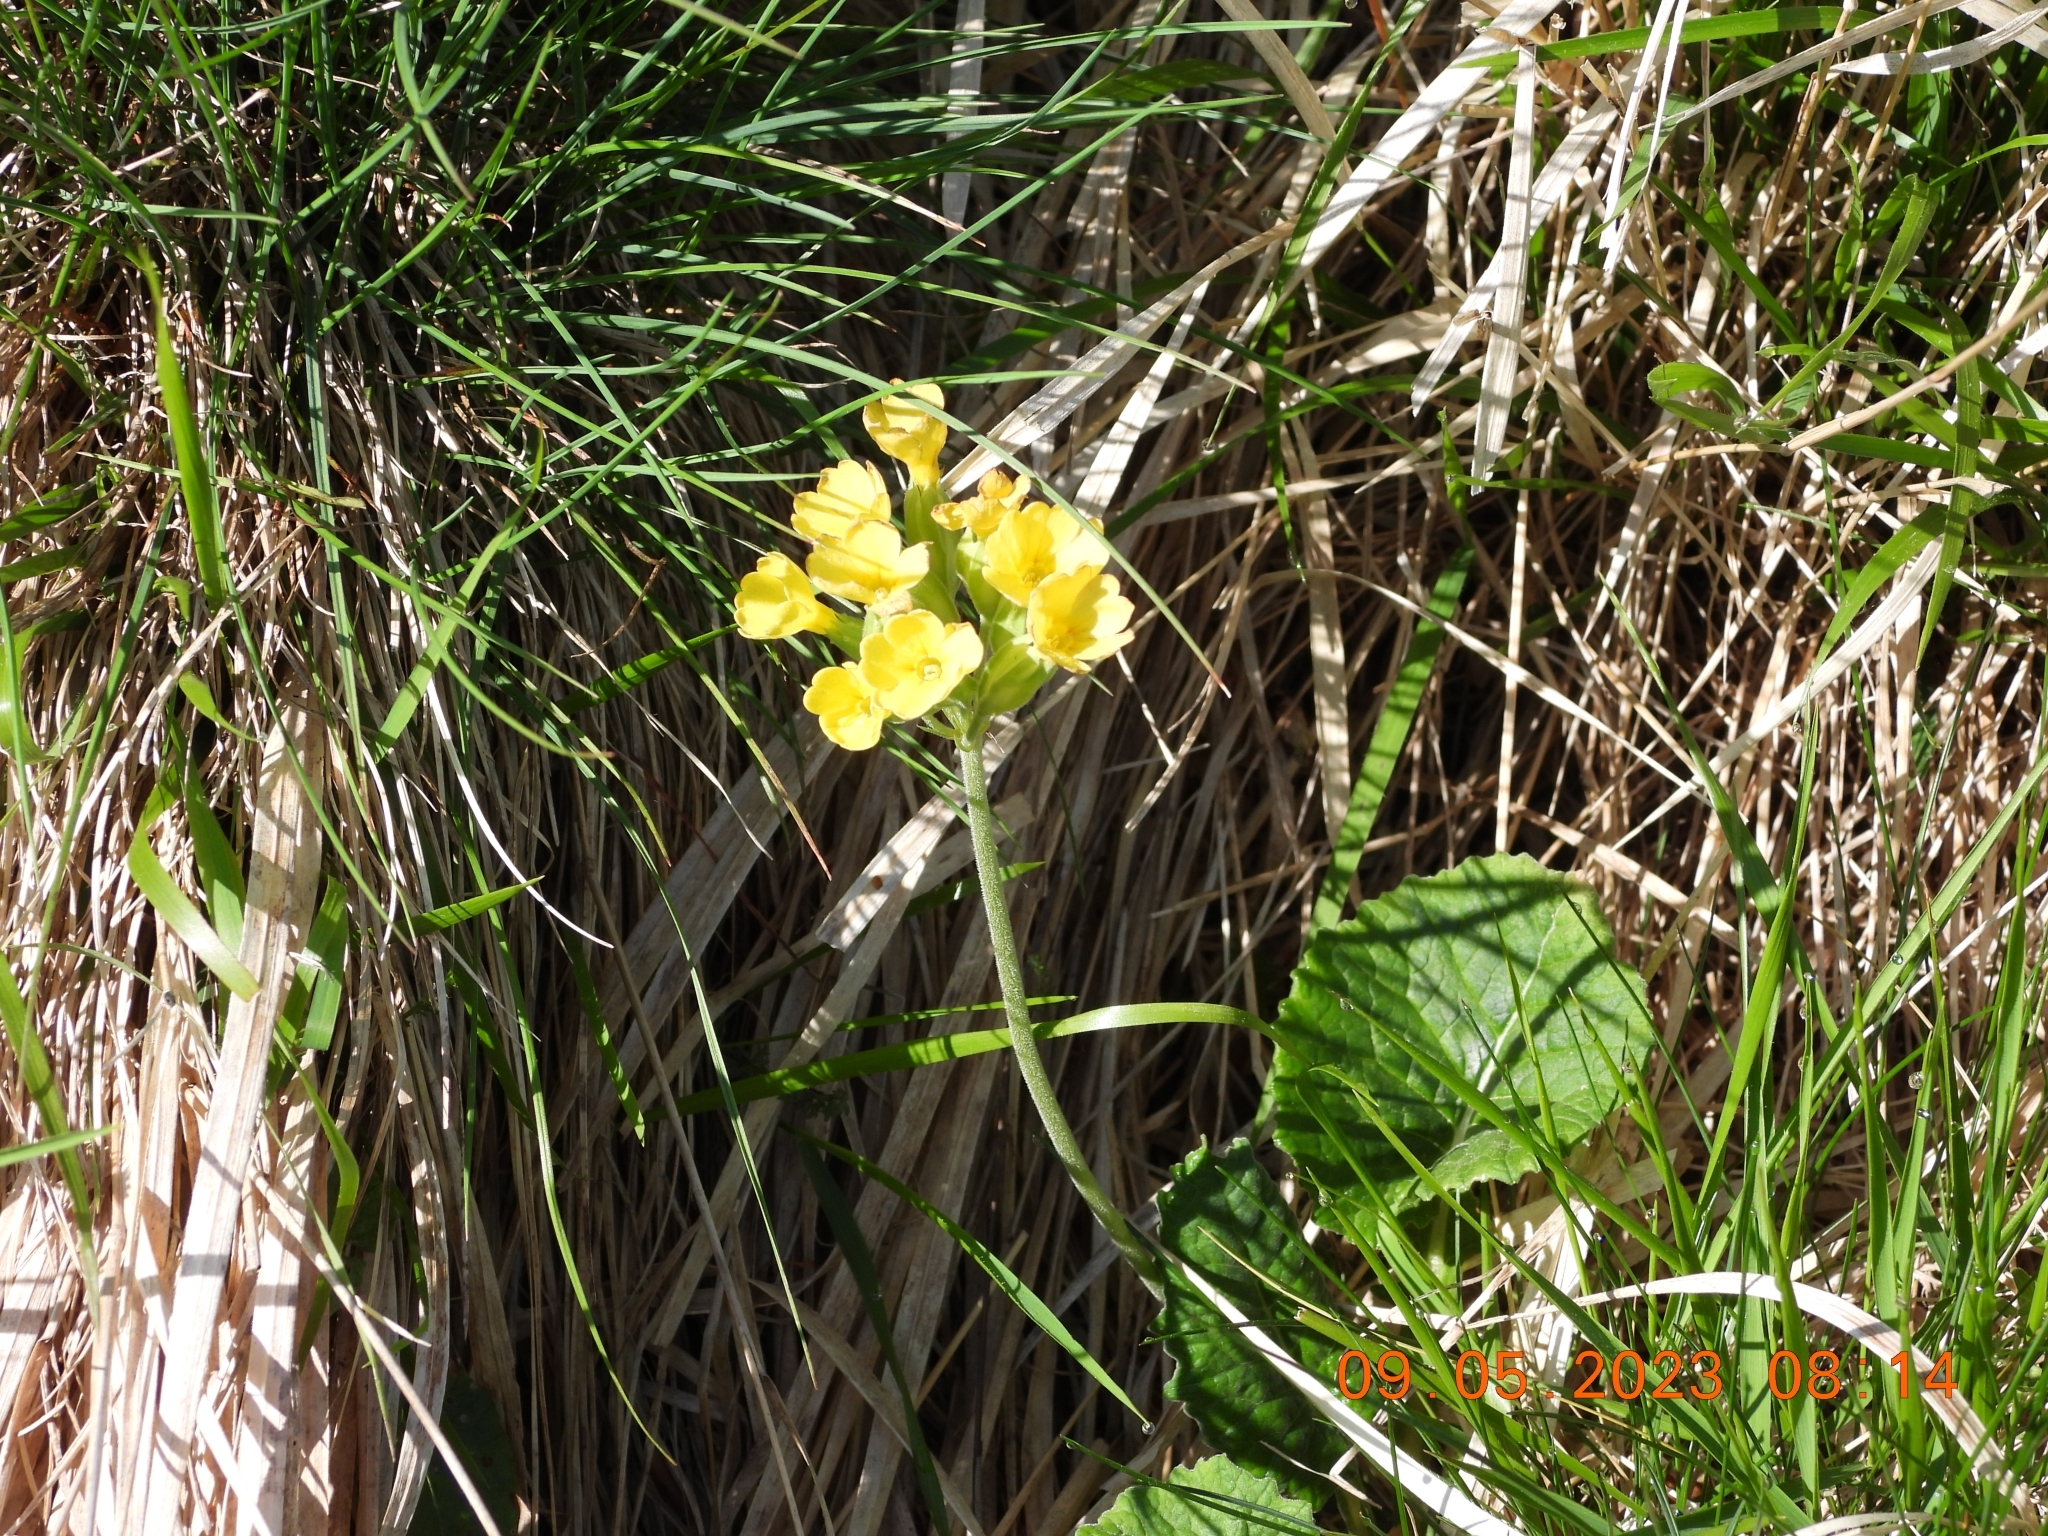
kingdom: Plantae
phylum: Tracheophyta
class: Magnoliopsida
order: Ericales
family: Primulaceae
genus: Primula
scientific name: Primula veris
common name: Cowslip
